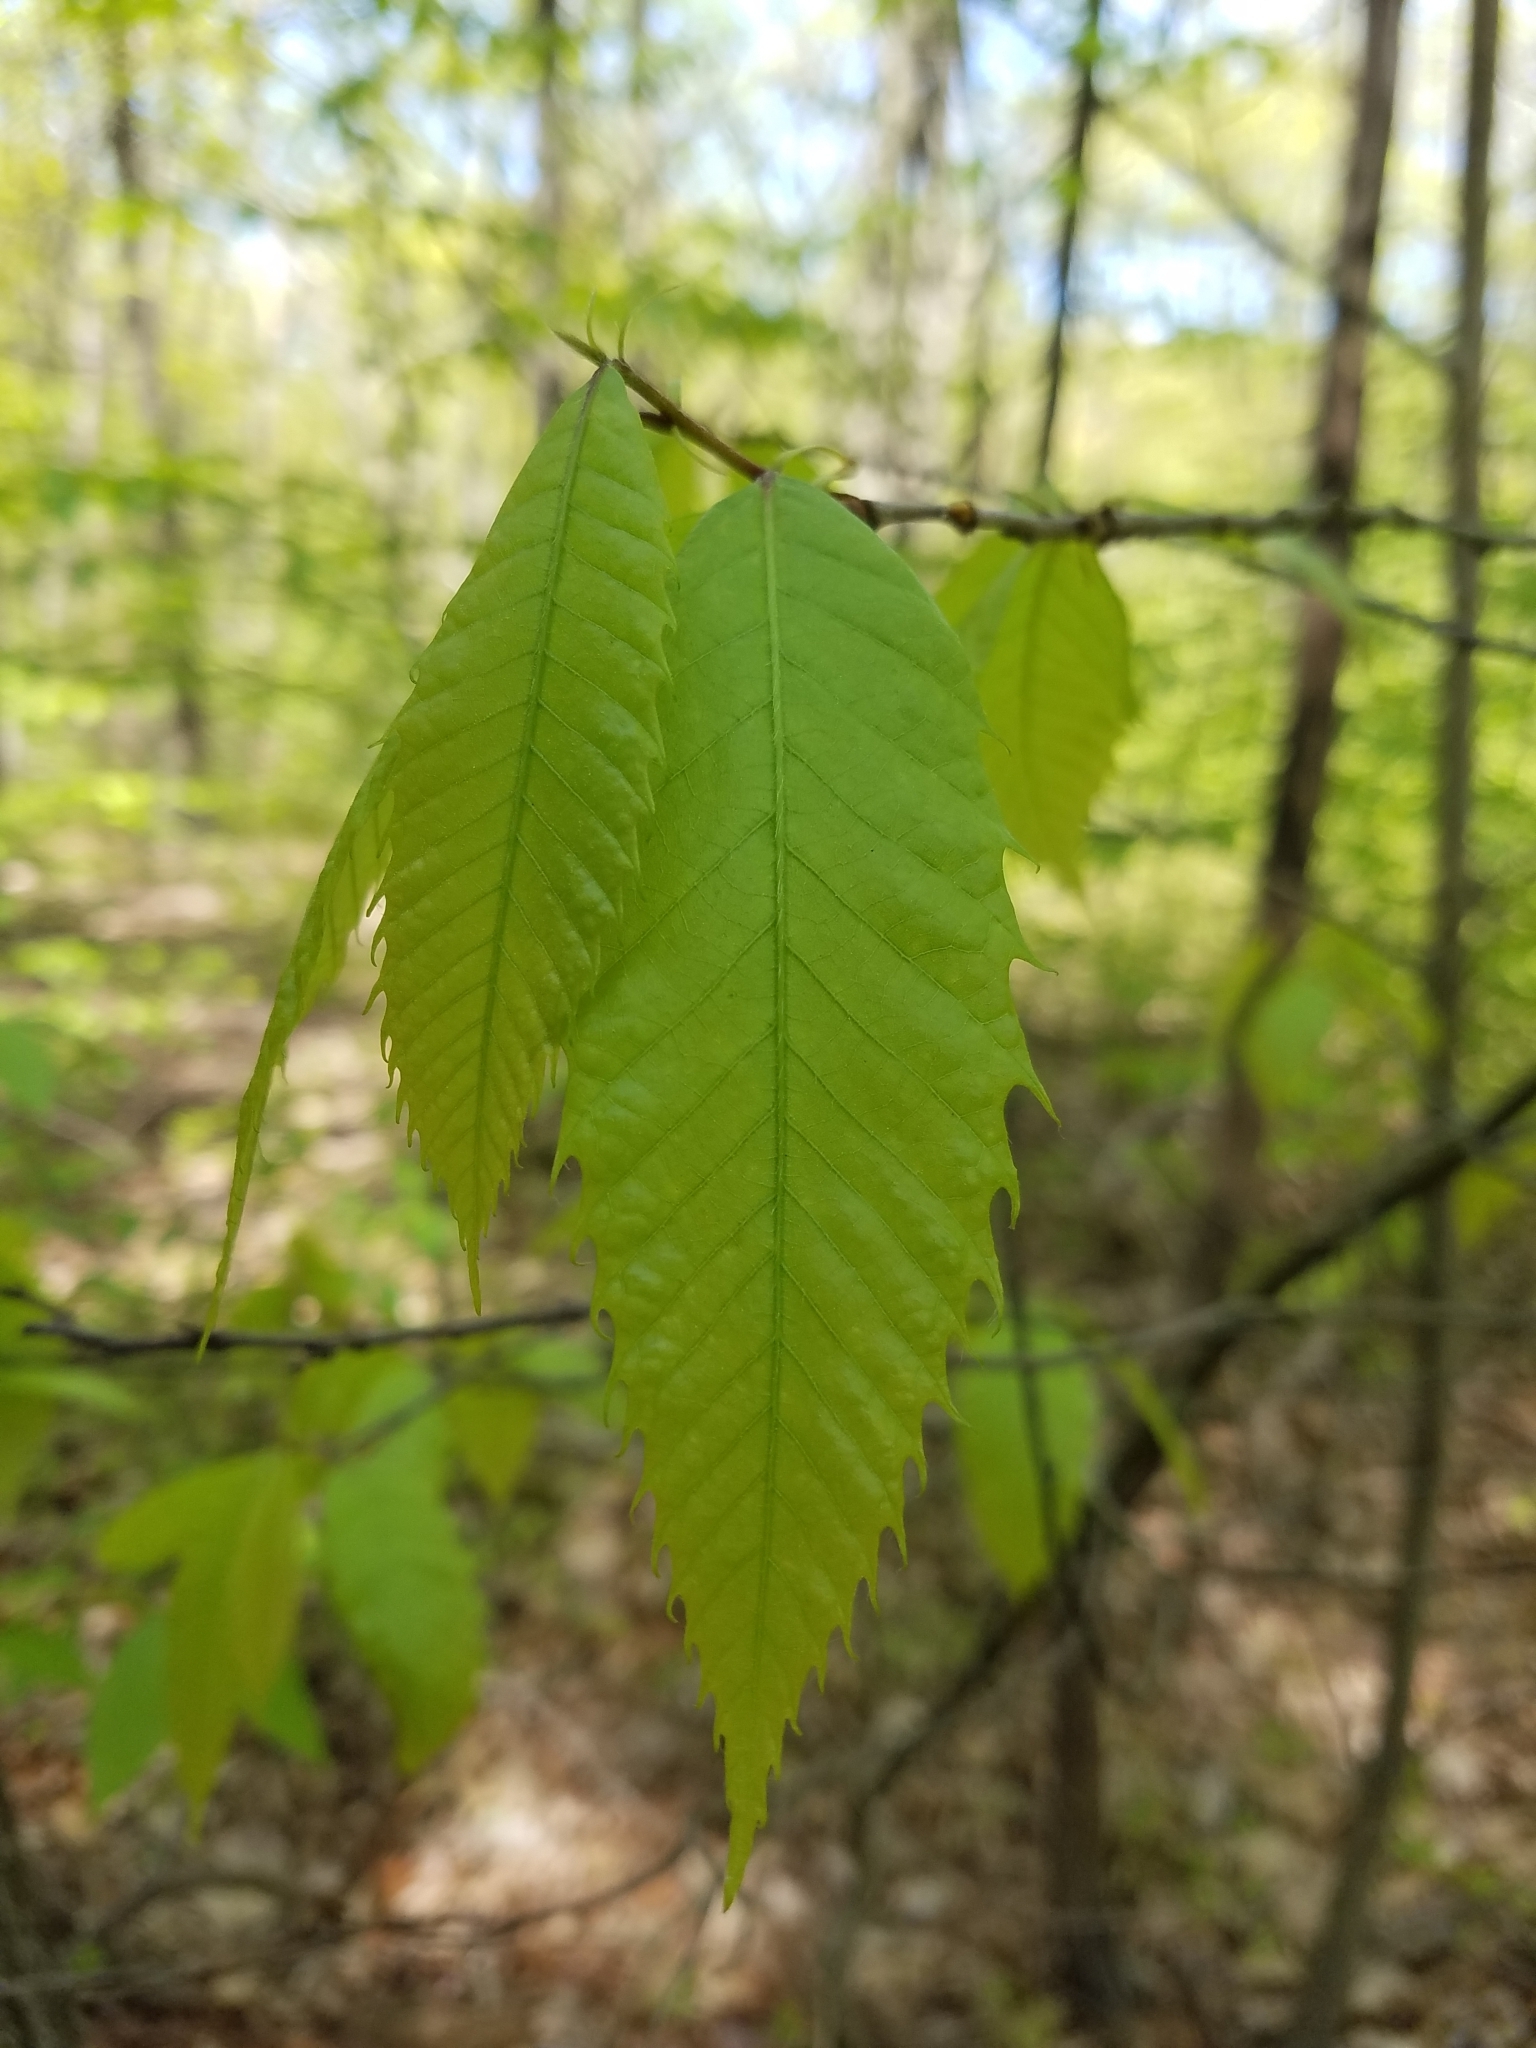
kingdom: Plantae
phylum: Tracheophyta
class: Magnoliopsida
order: Fagales
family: Fagaceae
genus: Castanea
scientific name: Castanea dentata
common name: American chestnut
